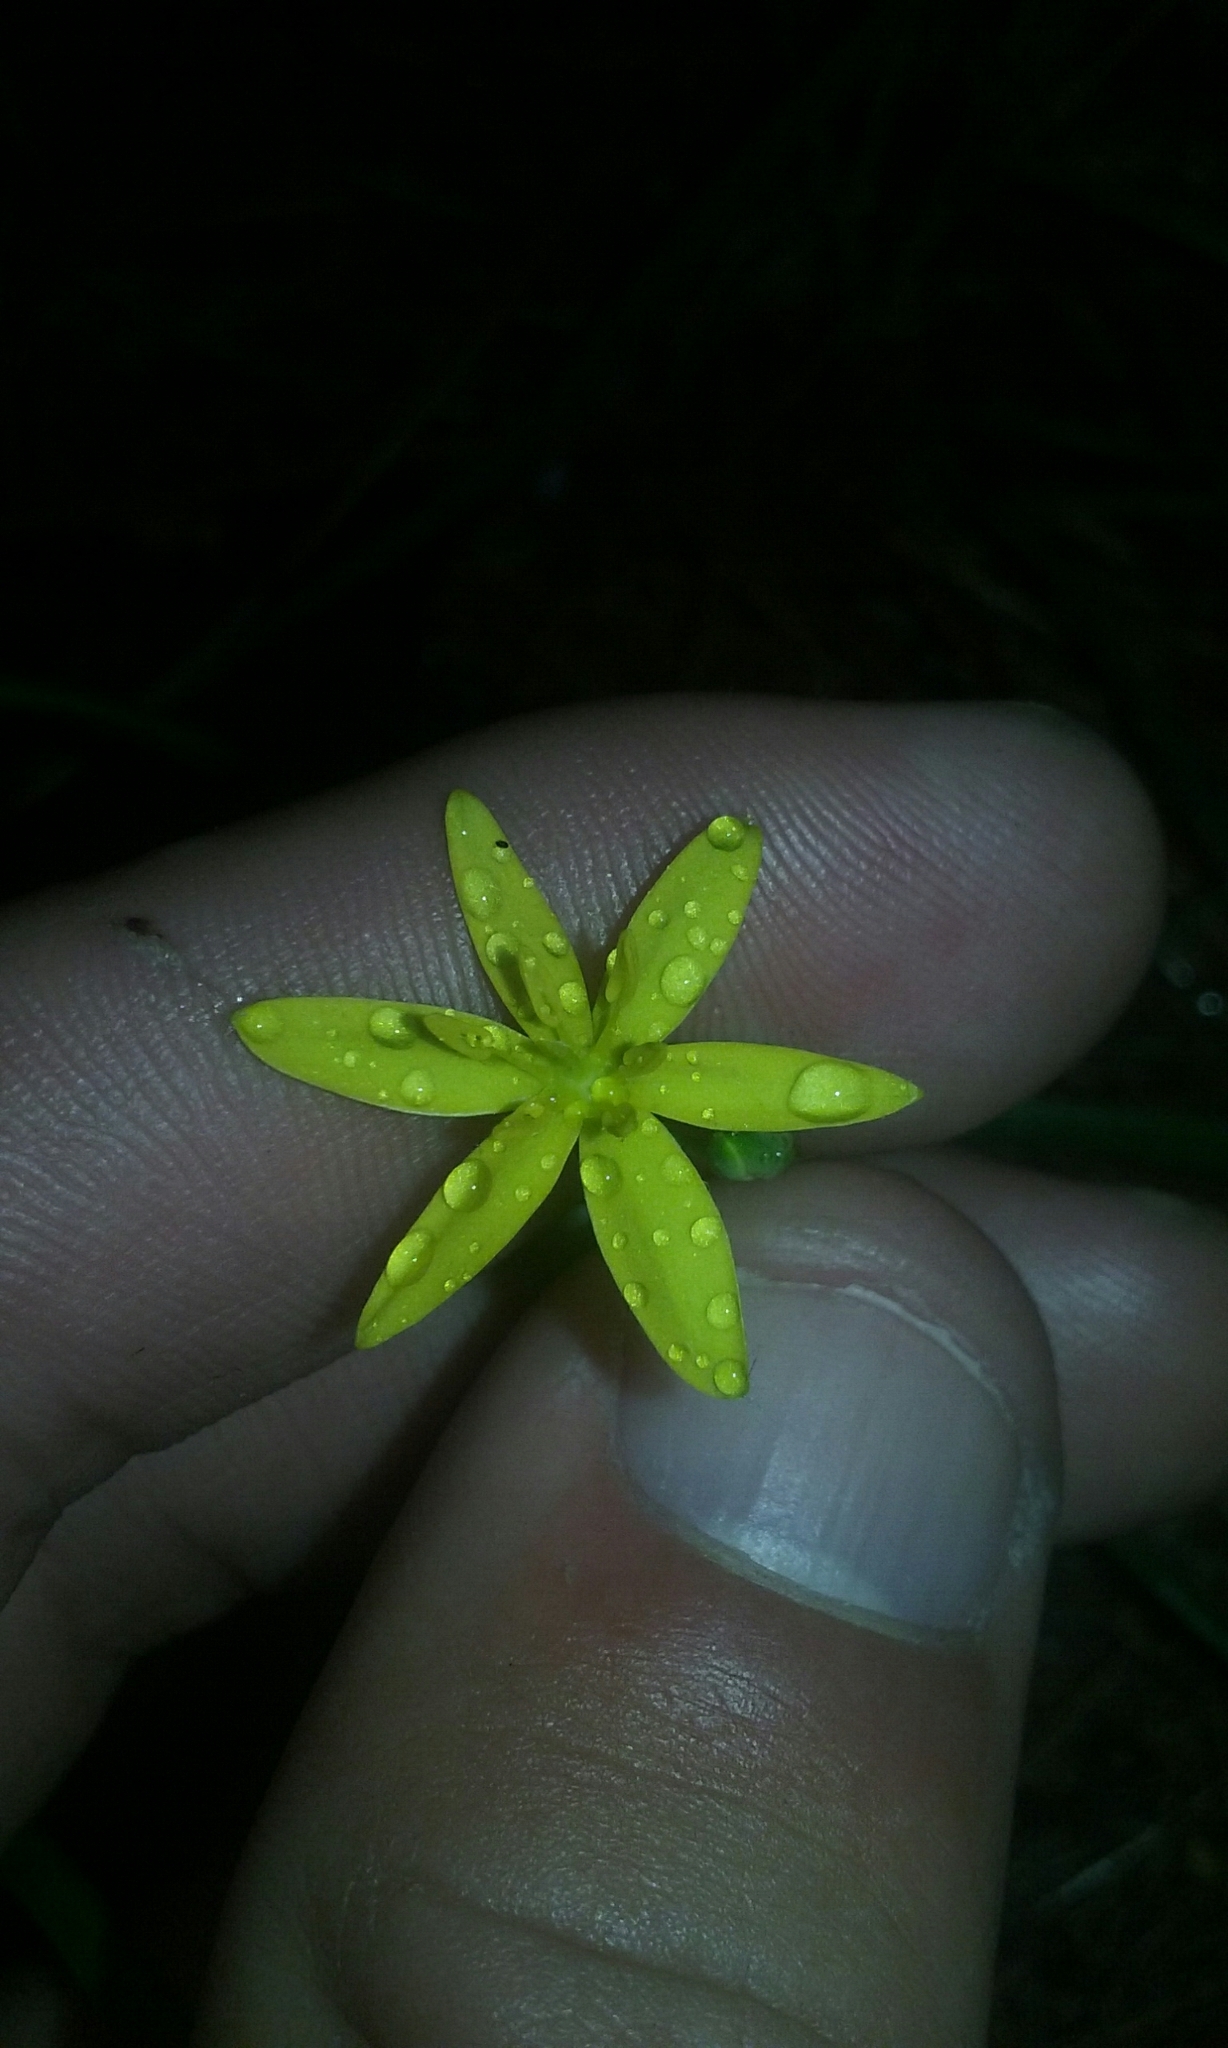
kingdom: Plantae
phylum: Tracheophyta
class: Liliopsida
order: Asparagales
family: Hypoxidaceae
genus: Hypoxis
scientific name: Hypoxis hirsuta
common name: Common goldstar
